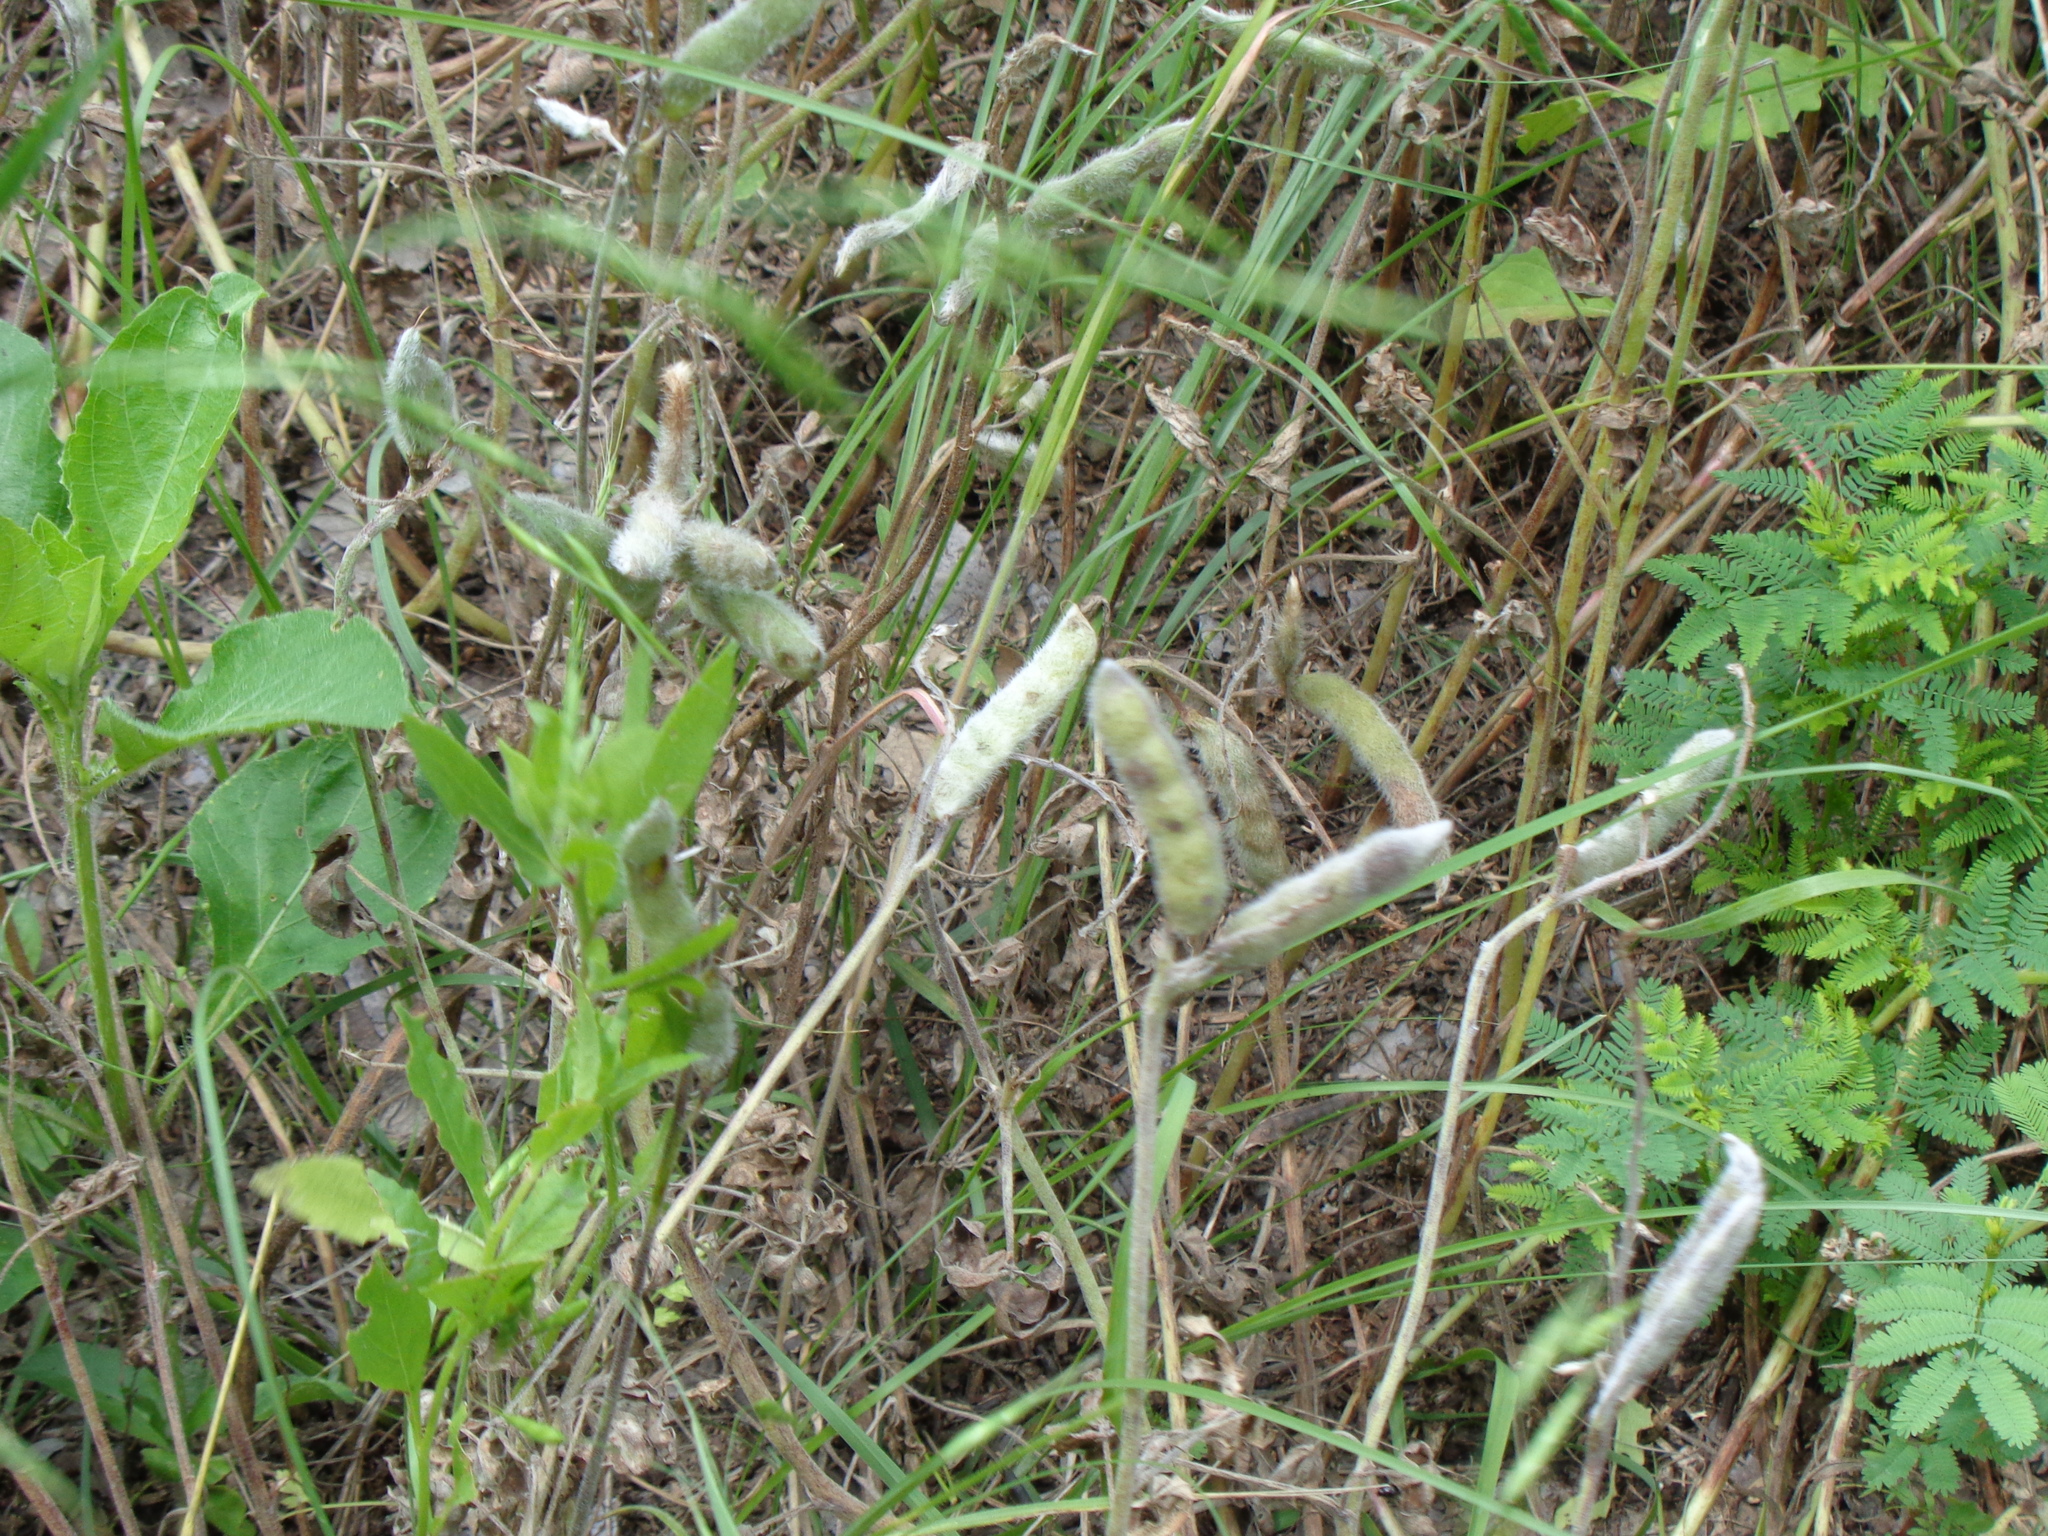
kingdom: Plantae
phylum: Tracheophyta
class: Magnoliopsida
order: Fabales
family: Fabaceae
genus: Lupinus
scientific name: Lupinus texensis
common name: Texas bluebonnet
